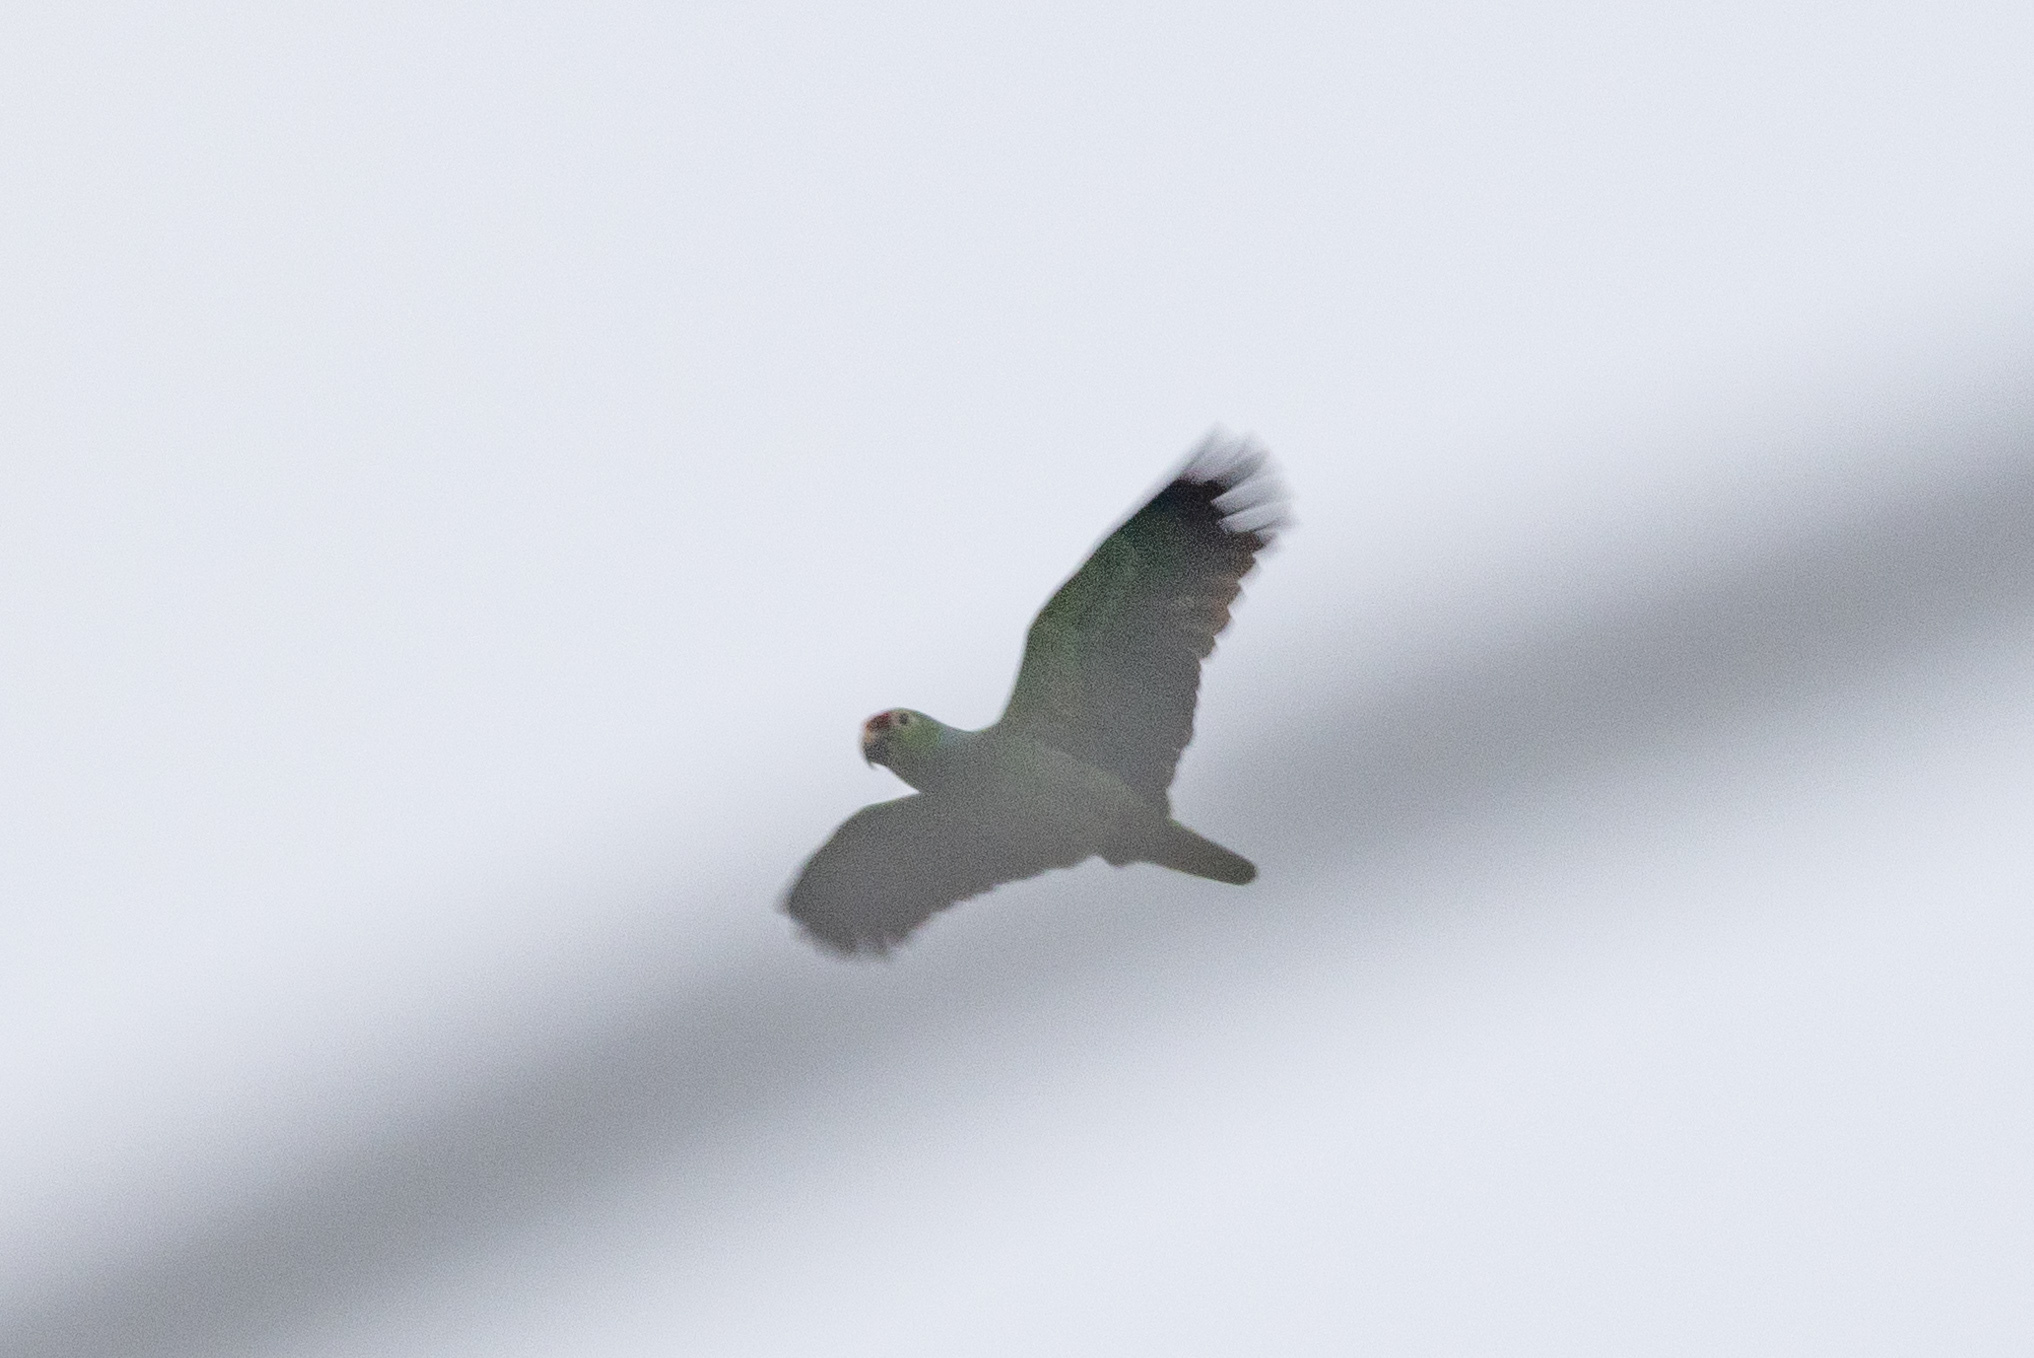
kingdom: Animalia
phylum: Chordata
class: Aves
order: Psittaciformes
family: Psittacidae
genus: Amazona
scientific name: Amazona autumnalis
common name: Red-lored amazon
